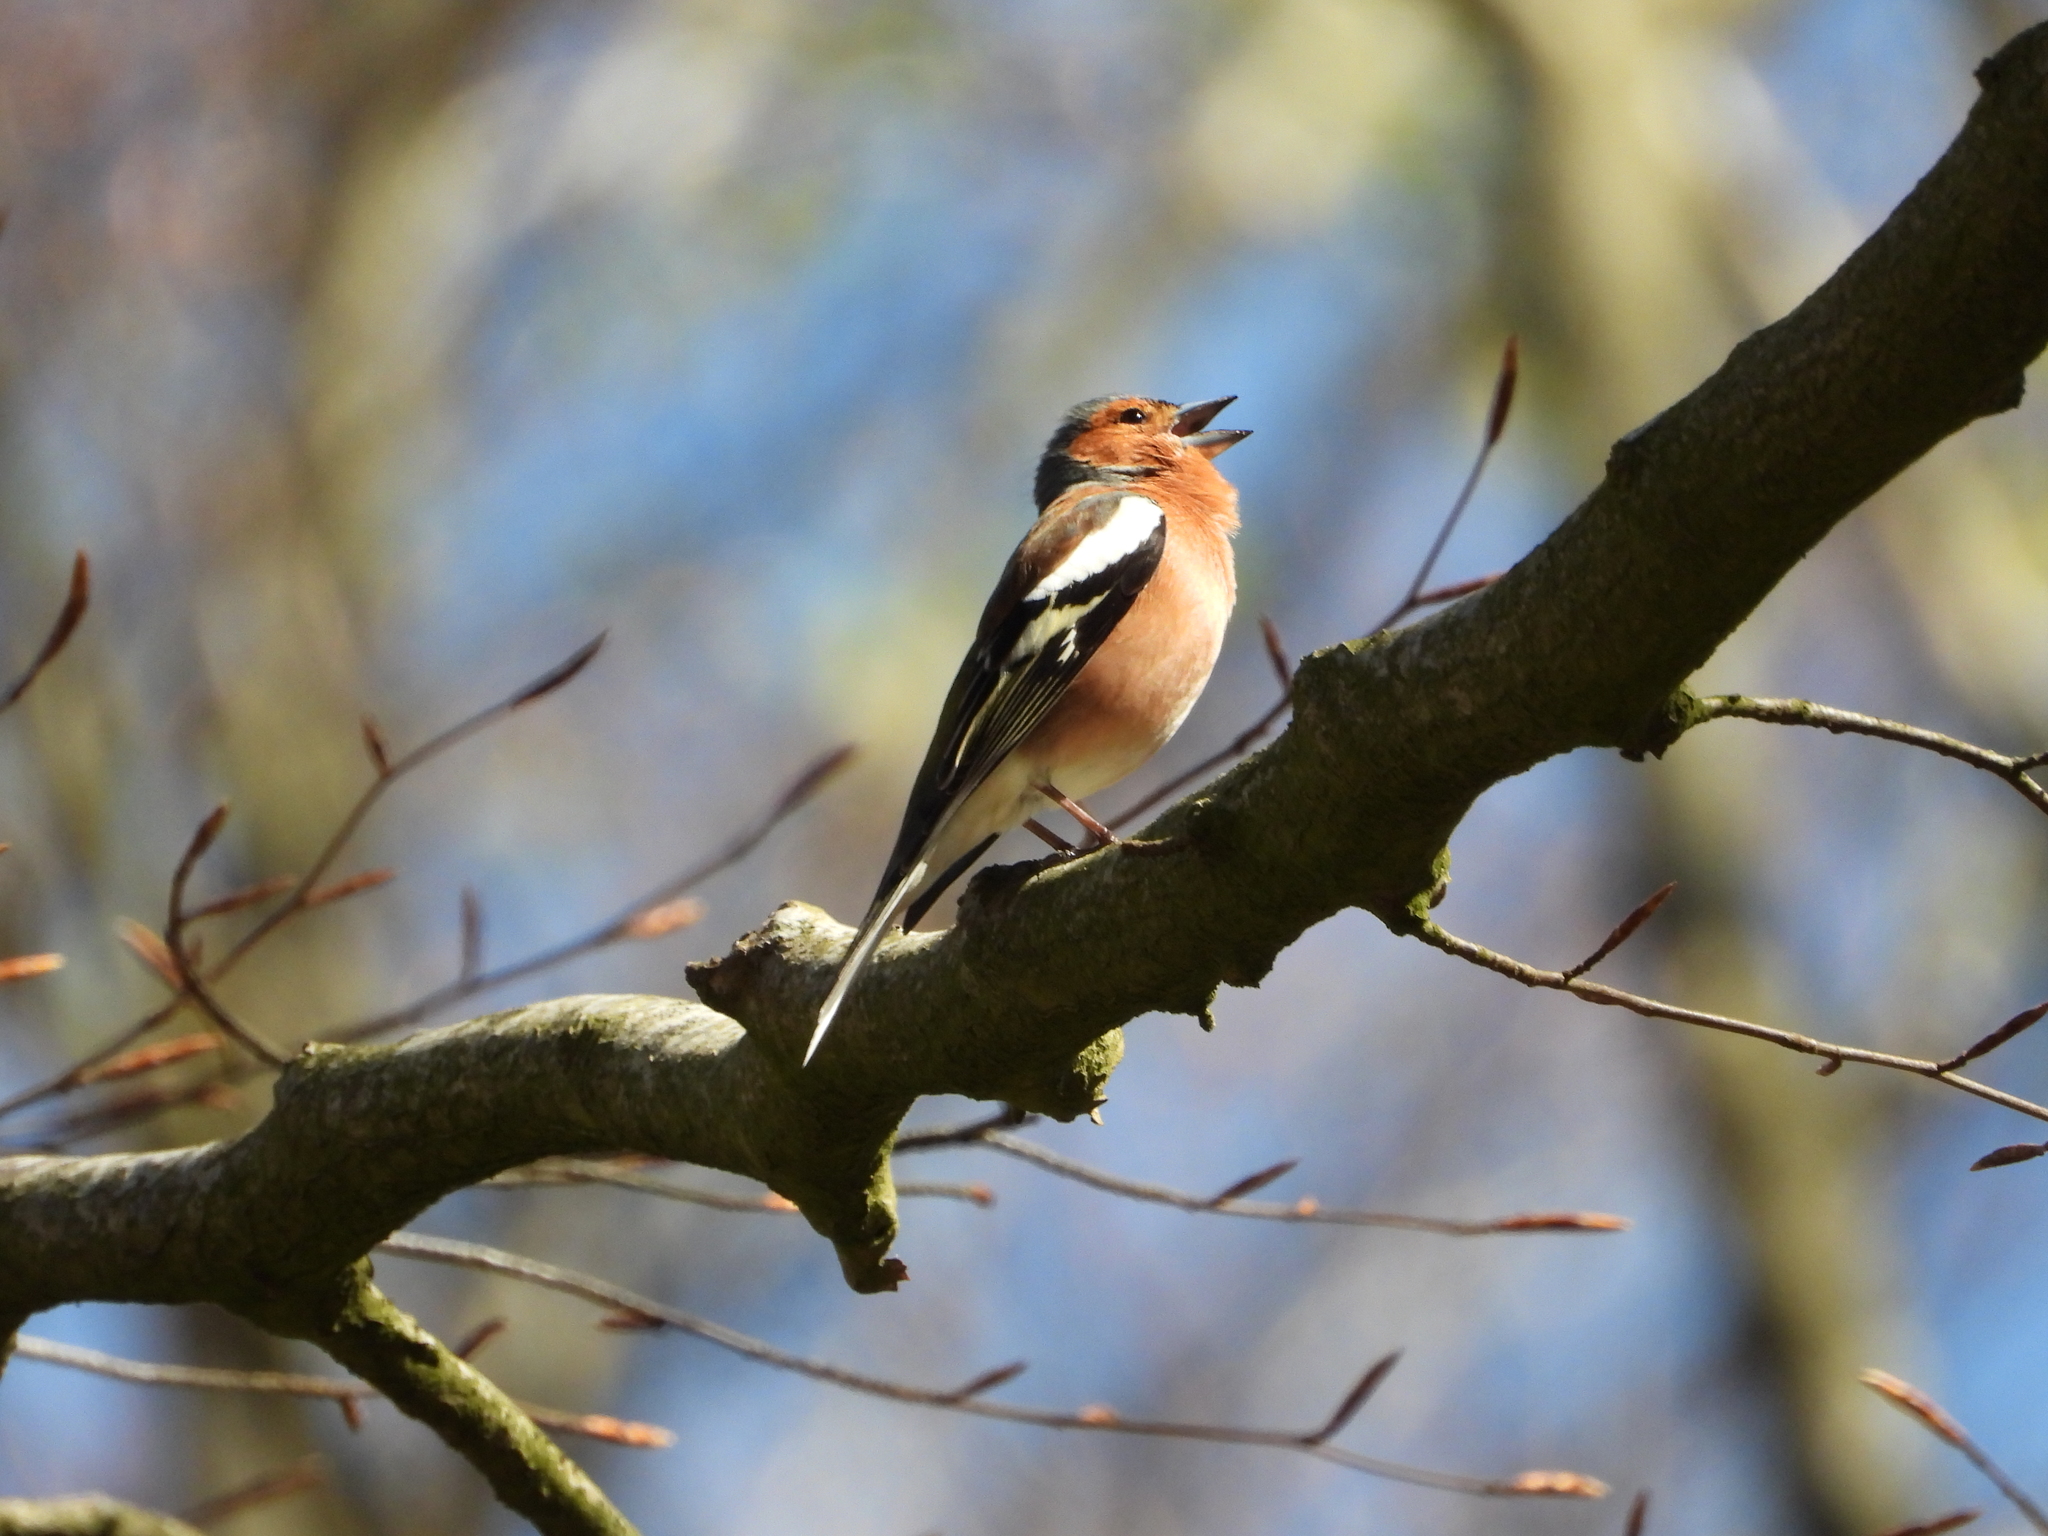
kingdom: Animalia
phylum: Chordata
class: Aves
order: Passeriformes
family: Fringillidae
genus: Fringilla
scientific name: Fringilla coelebs
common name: Common chaffinch
